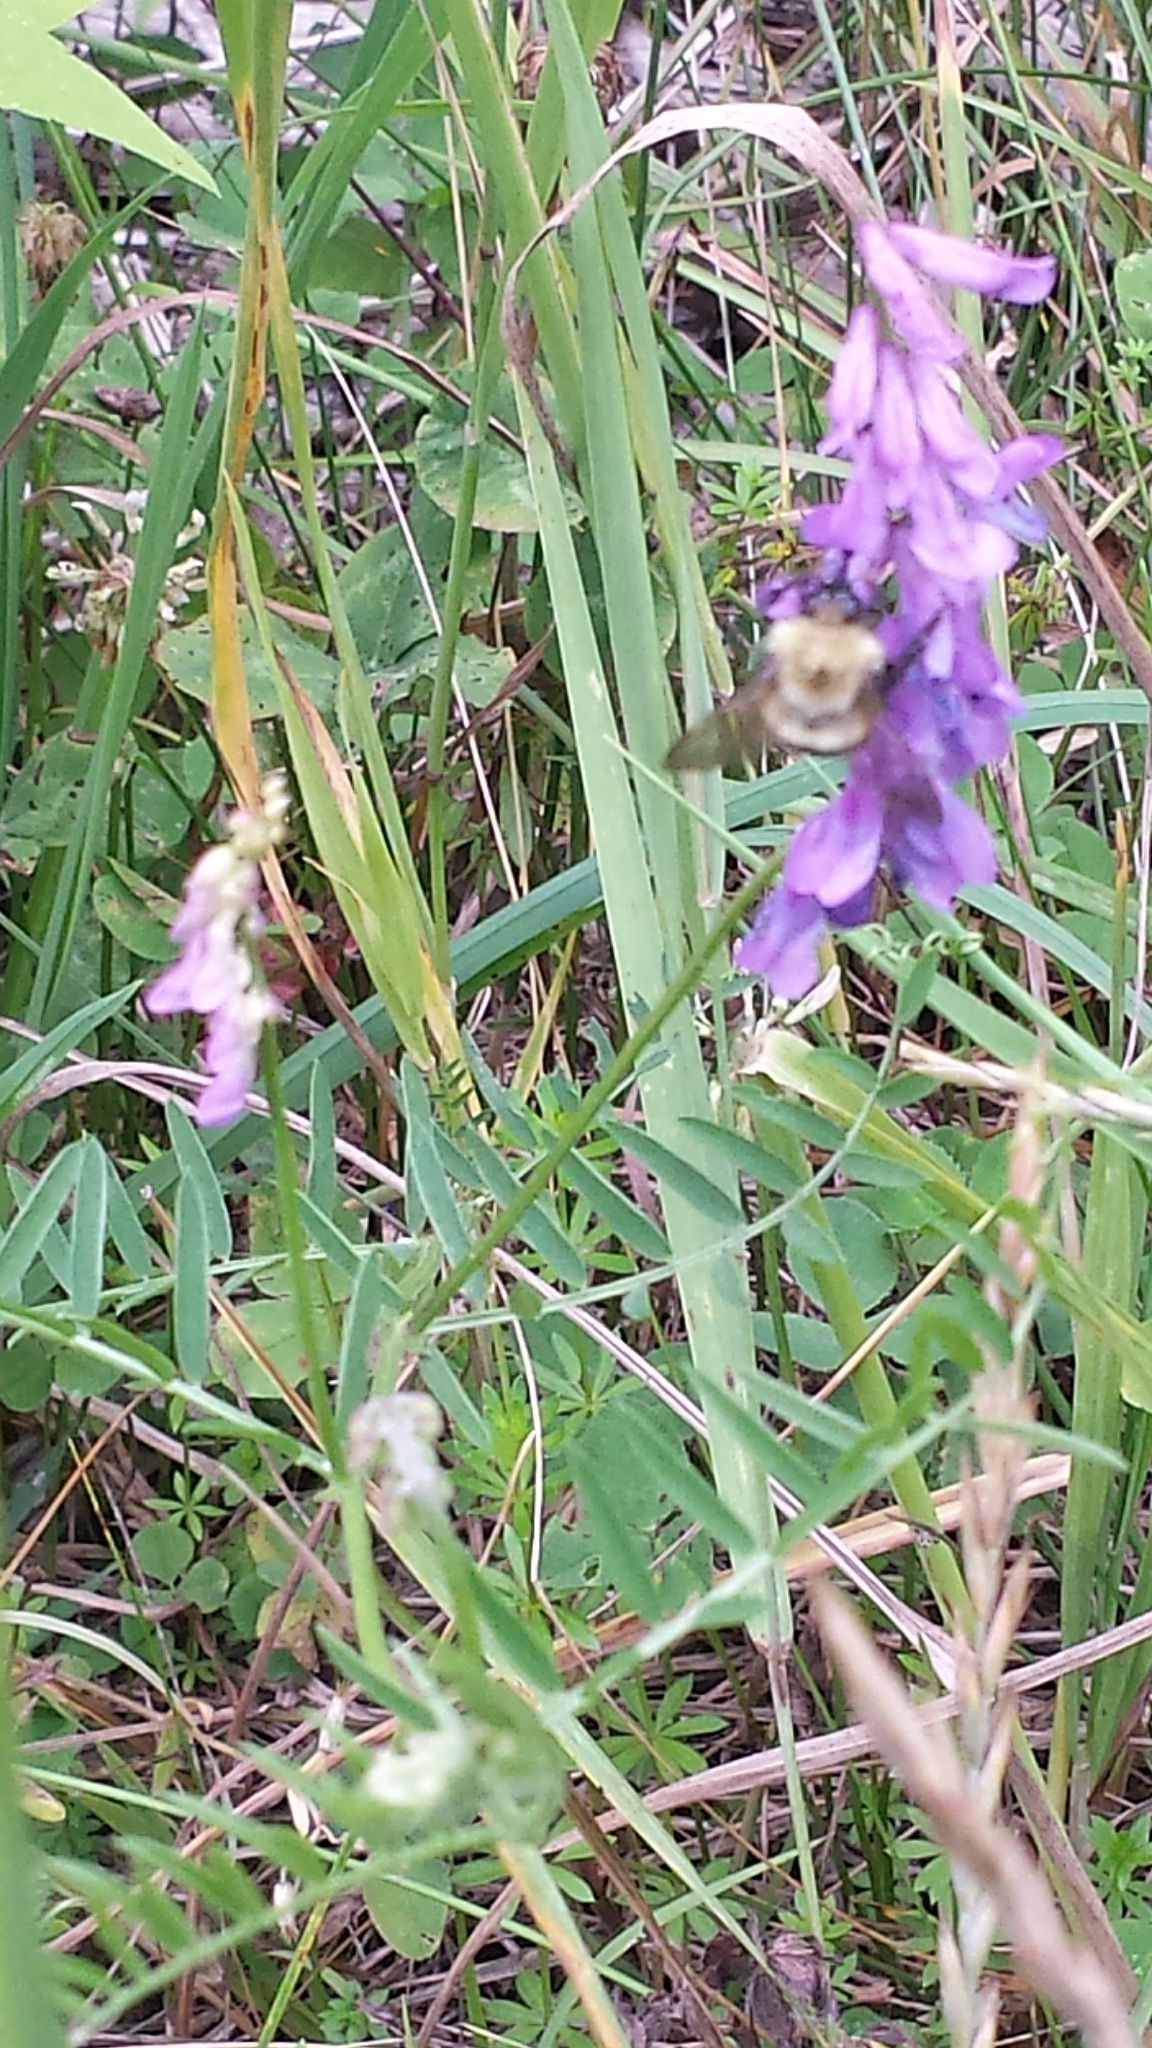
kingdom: Plantae
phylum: Tracheophyta
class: Magnoliopsida
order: Fabales
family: Fabaceae
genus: Vicia
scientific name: Vicia cracca
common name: Bird vetch
